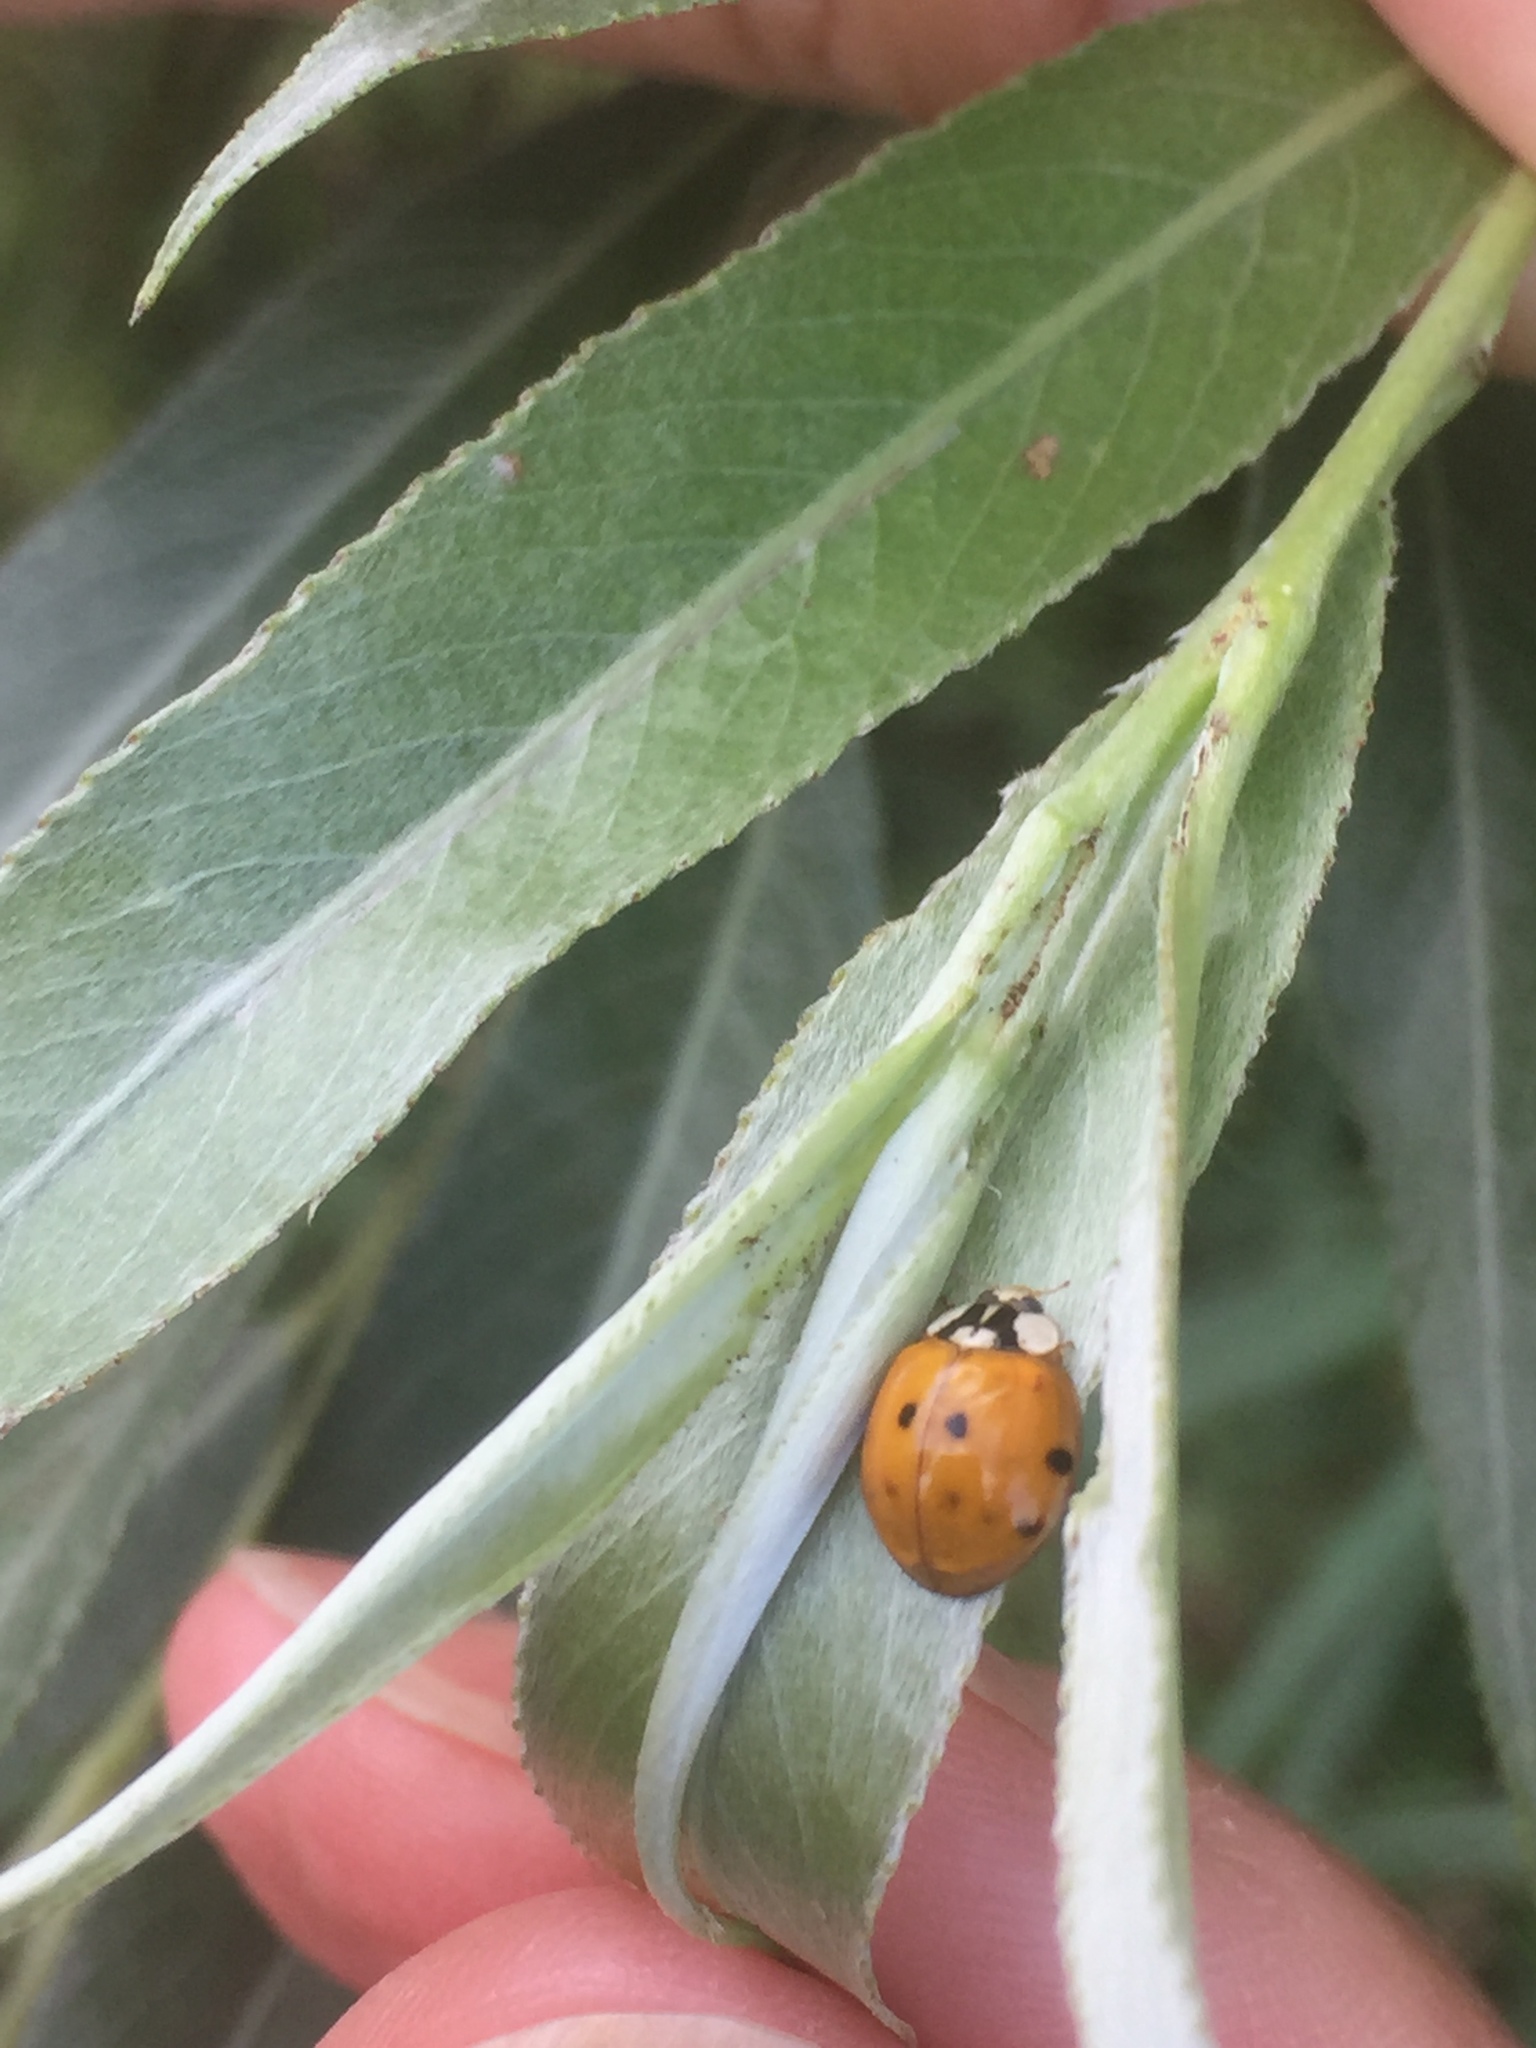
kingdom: Animalia
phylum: Arthropoda
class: Insecta
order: Coleoptera
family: Coccinellidae
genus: Harmonia
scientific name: Harmonia axyridis
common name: Harlequin ladybird
